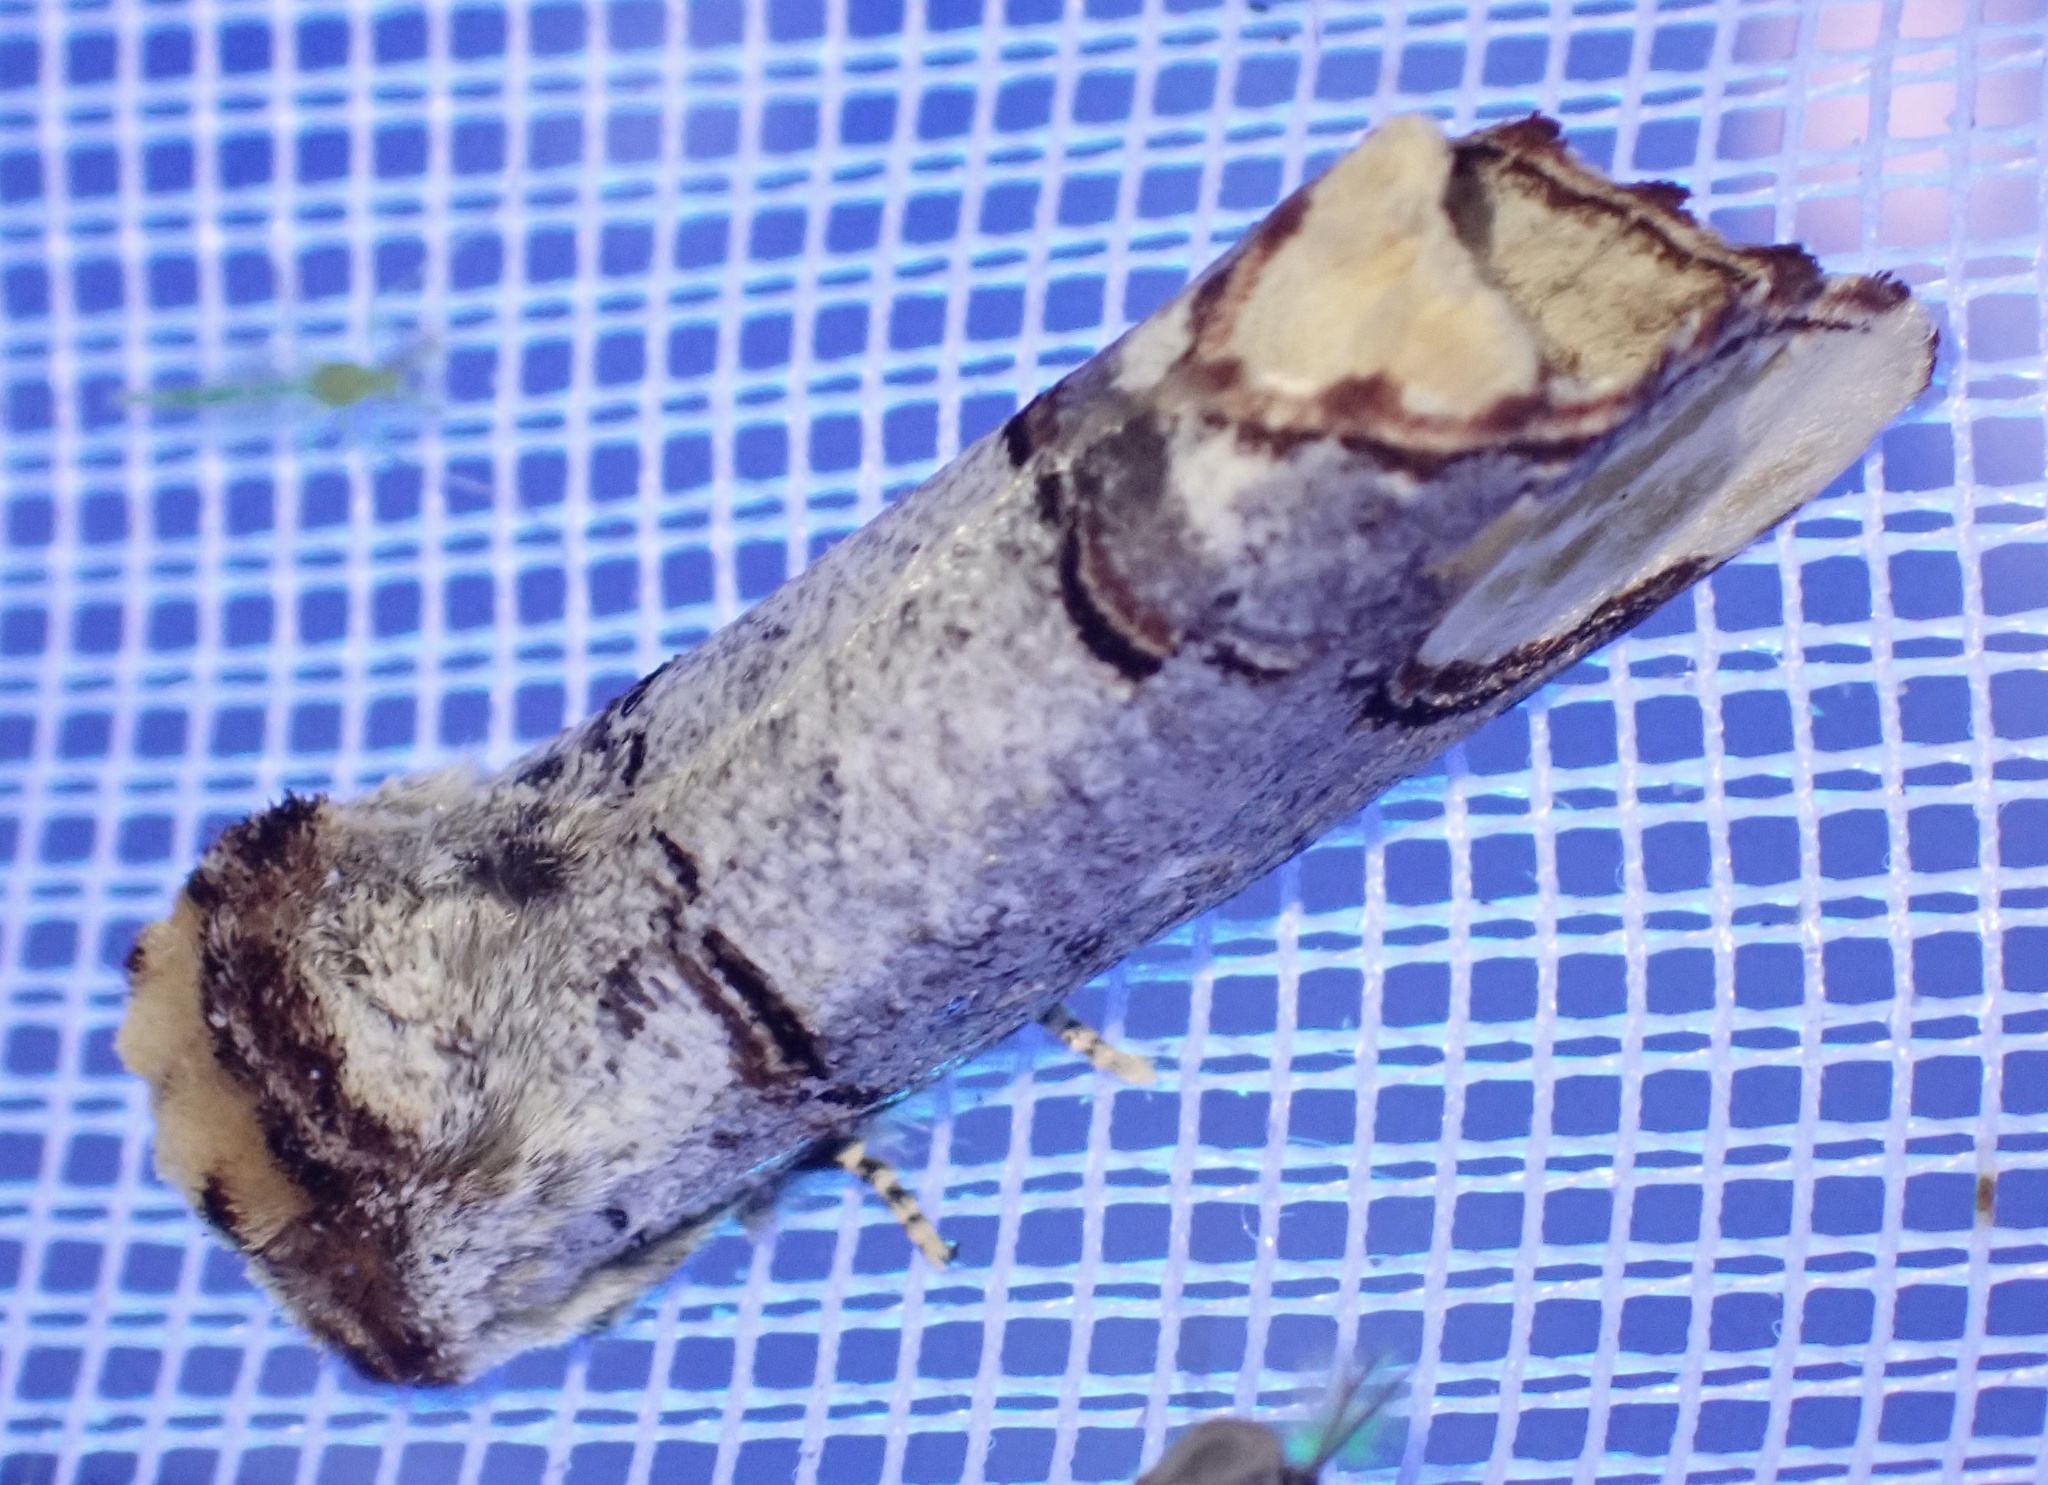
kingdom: Animalia
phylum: Arthropoda
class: Insecta
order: Lepidoptera
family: Notodontidae
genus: Phalera
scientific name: Phalera bucephala
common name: Buff-tip
